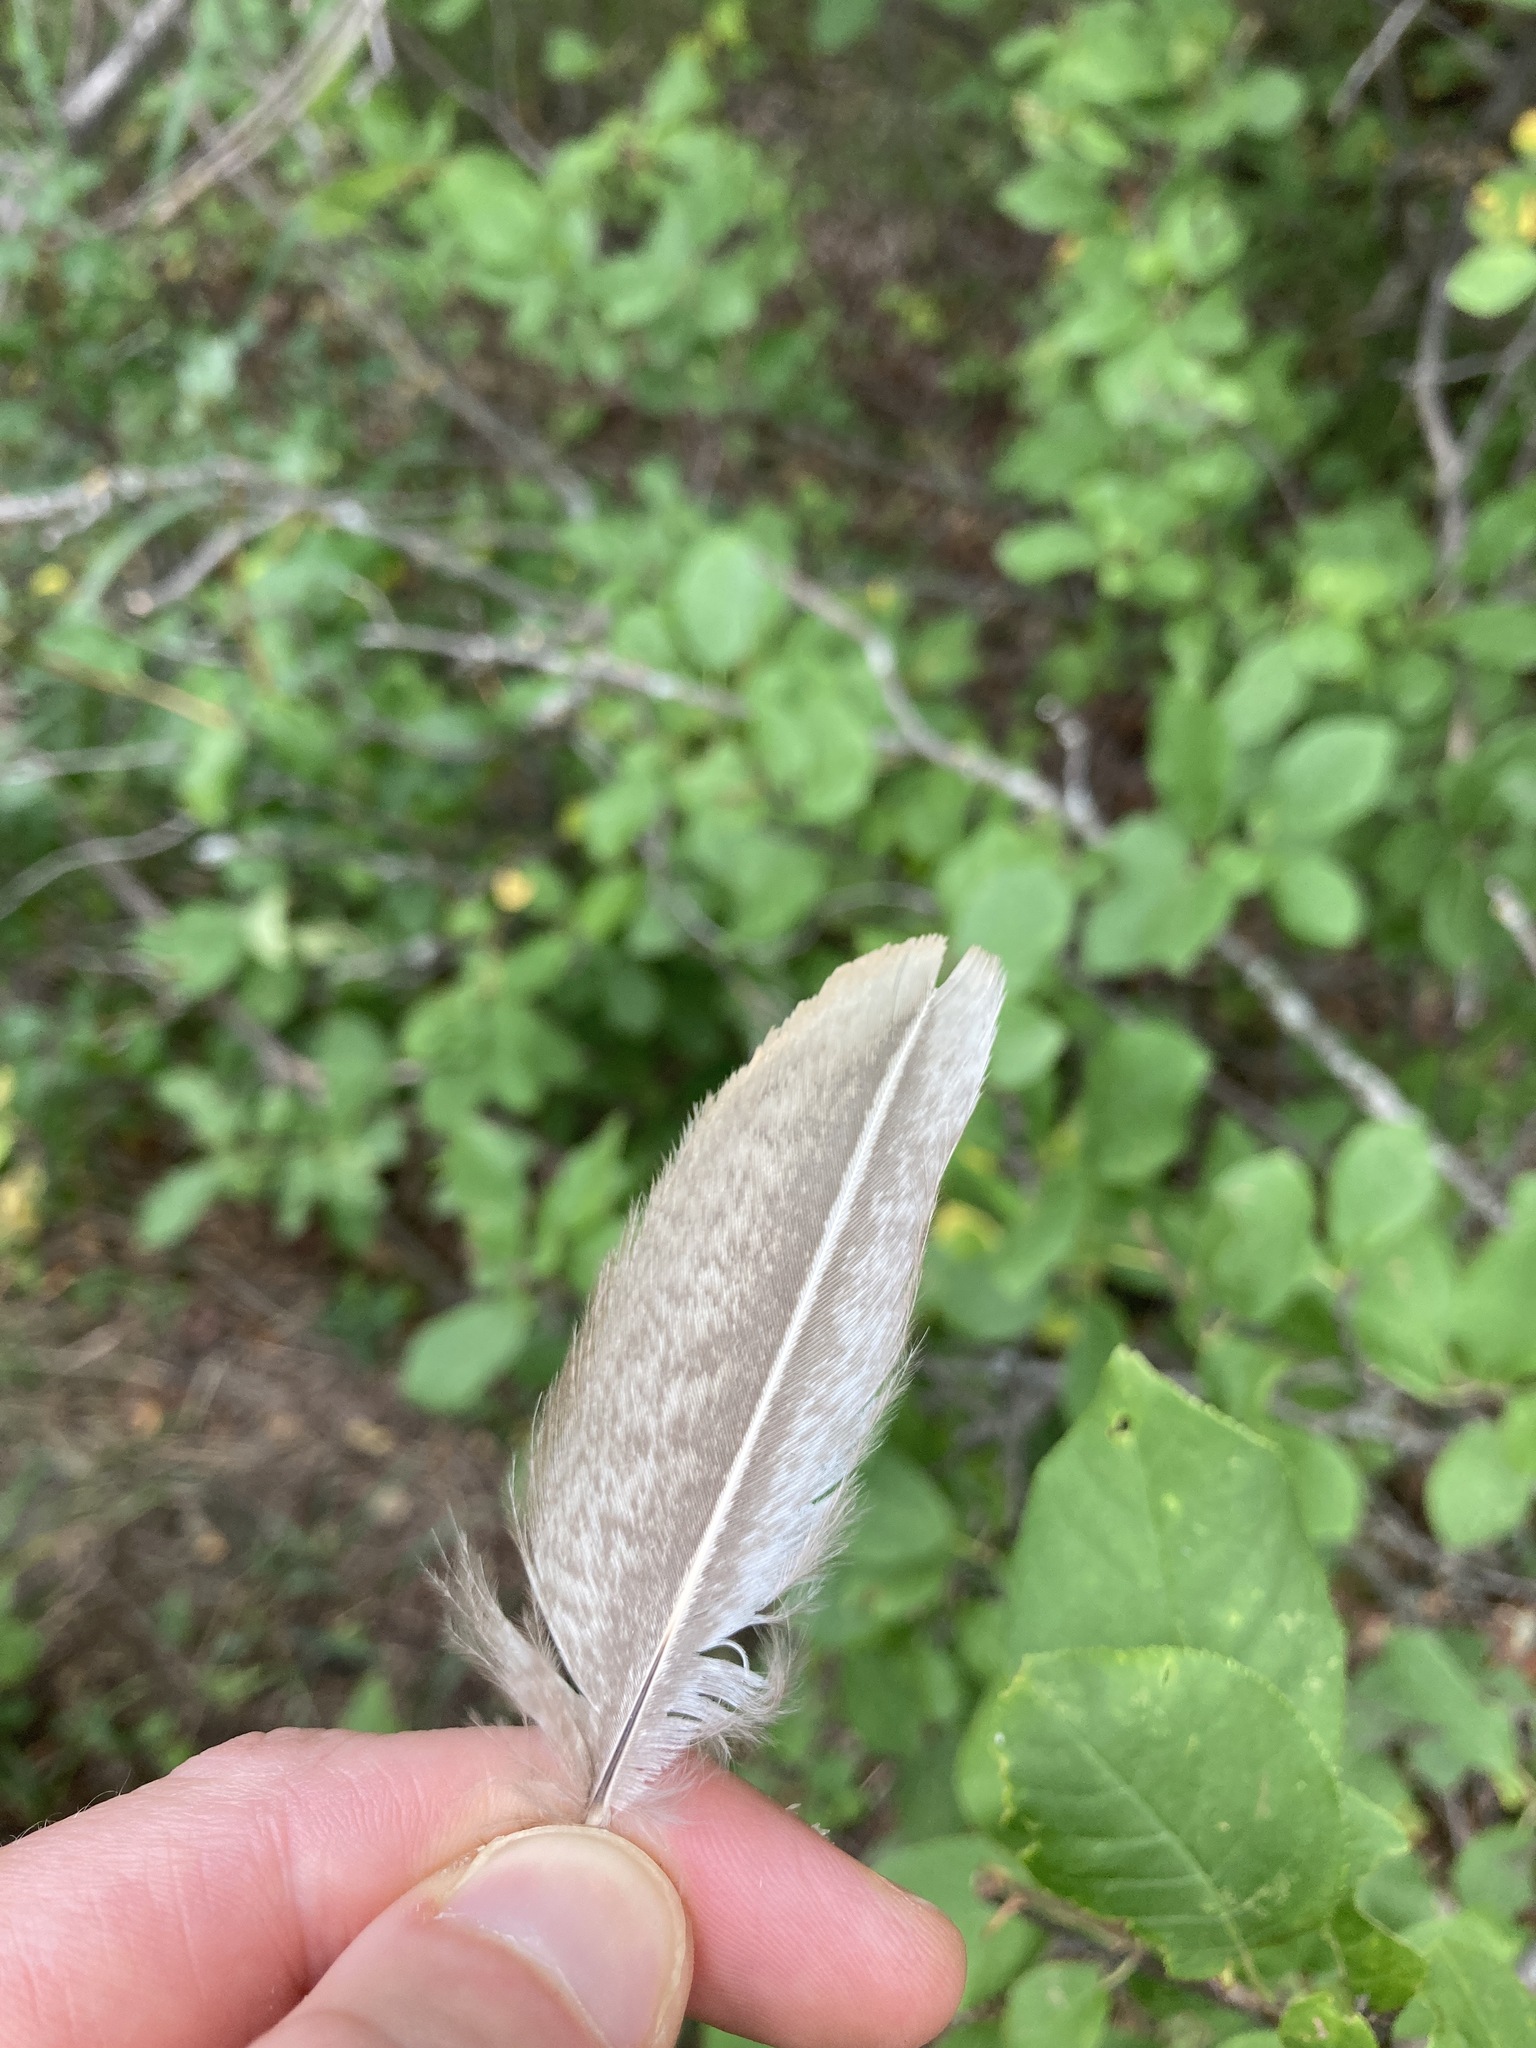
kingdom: Animalia
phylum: Chordata
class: Aves
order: Galliformes
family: Phasianidae
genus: Phasianus
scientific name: Phasianus colchicus
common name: Common pheasant
